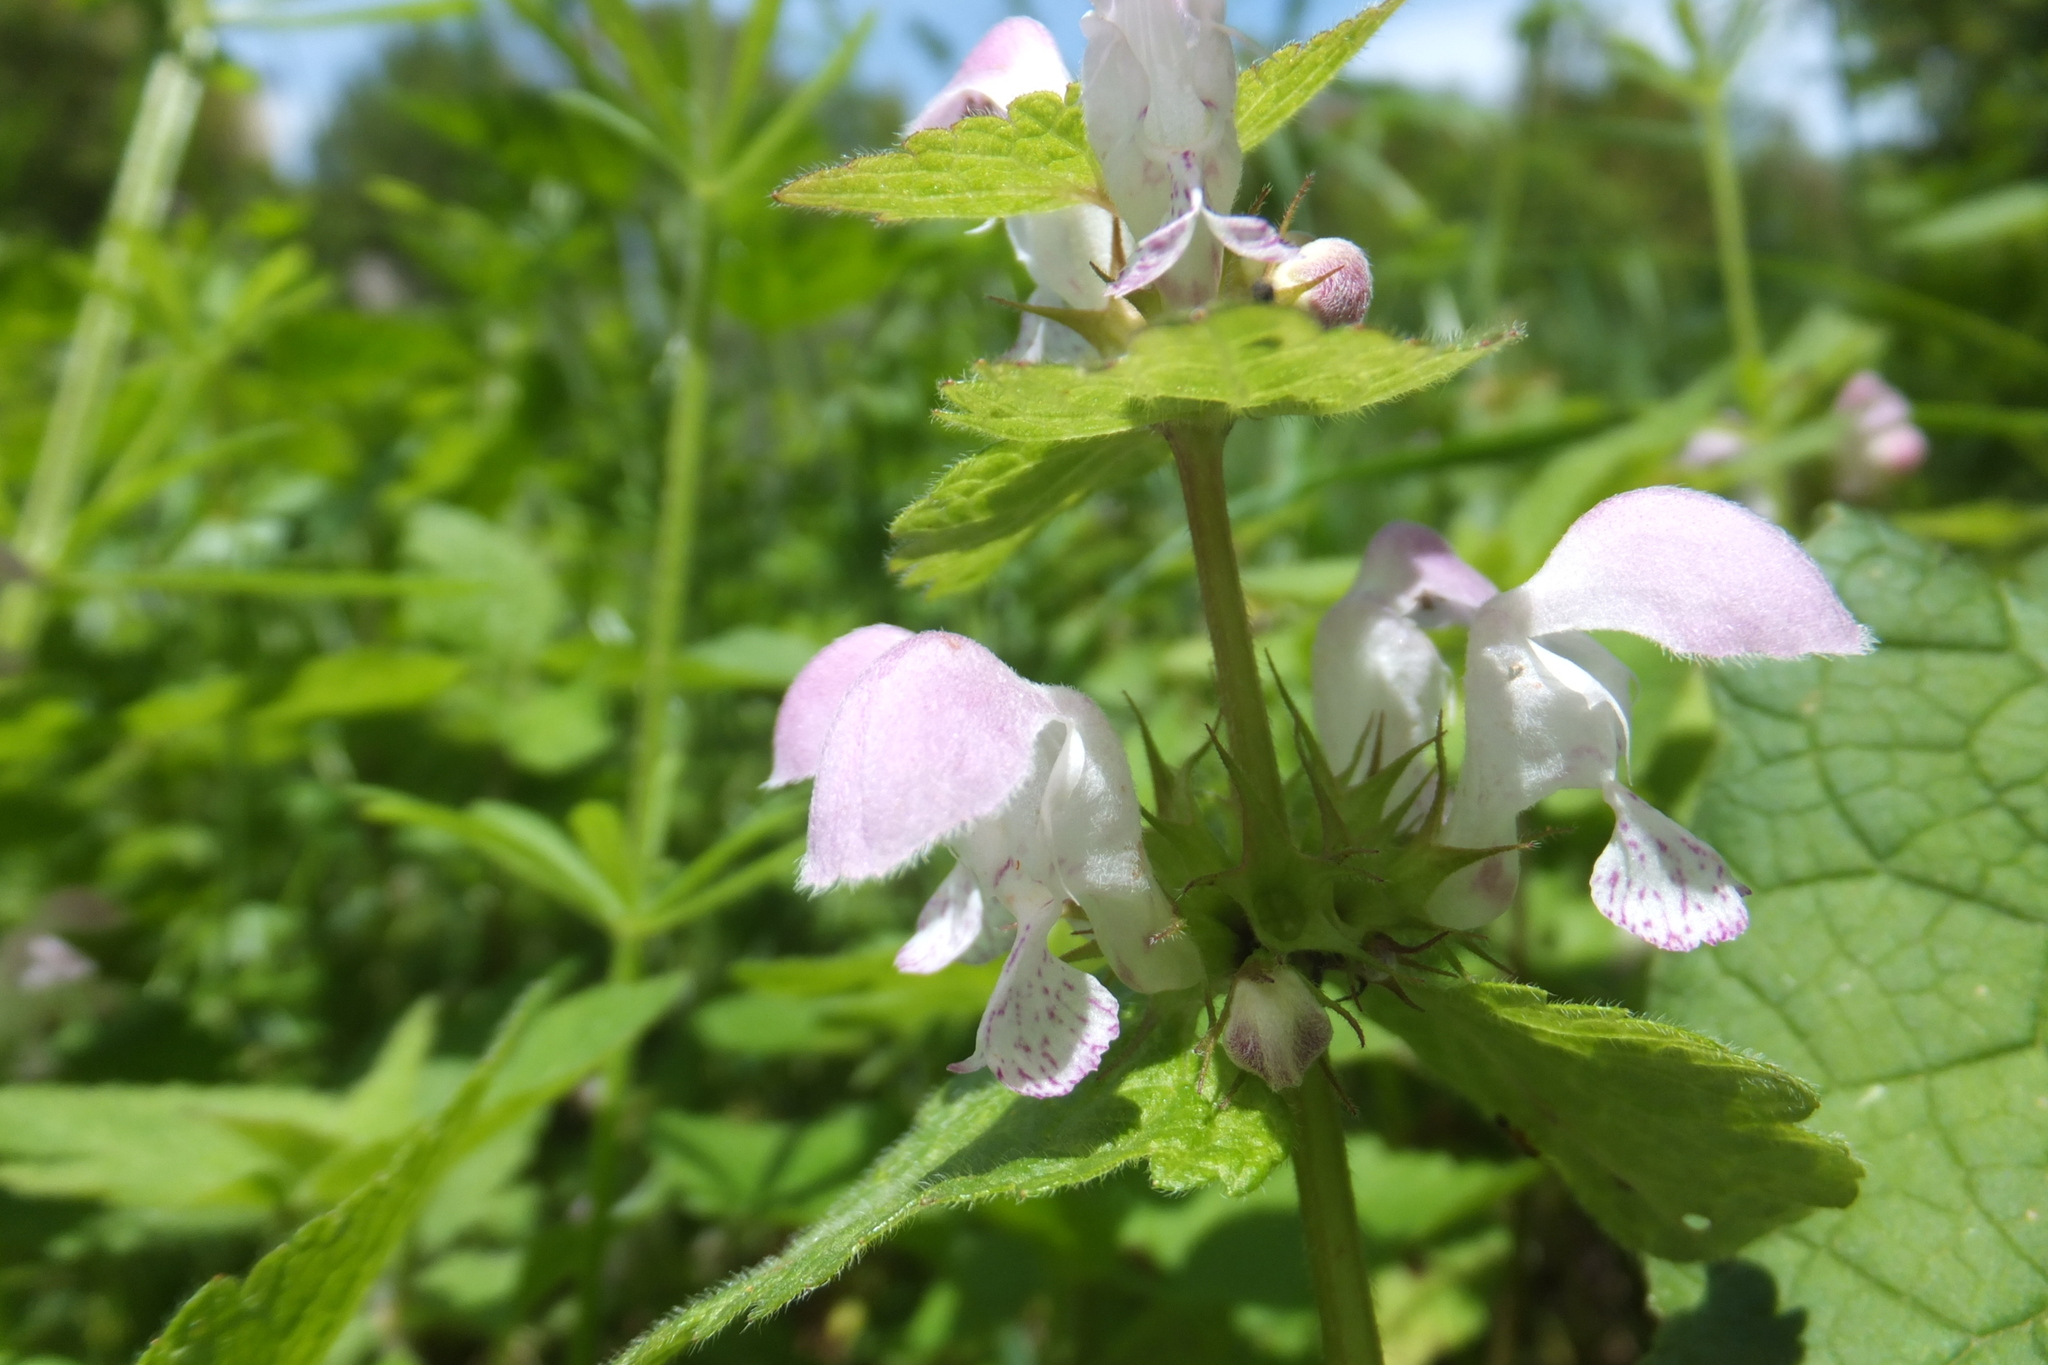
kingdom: Plantae
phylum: Tracheophyta
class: Magnoliopsida
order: Lamiales
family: Lamiaceae
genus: Lamium
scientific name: Lamium maculatum
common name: Spotted dead-nettle
